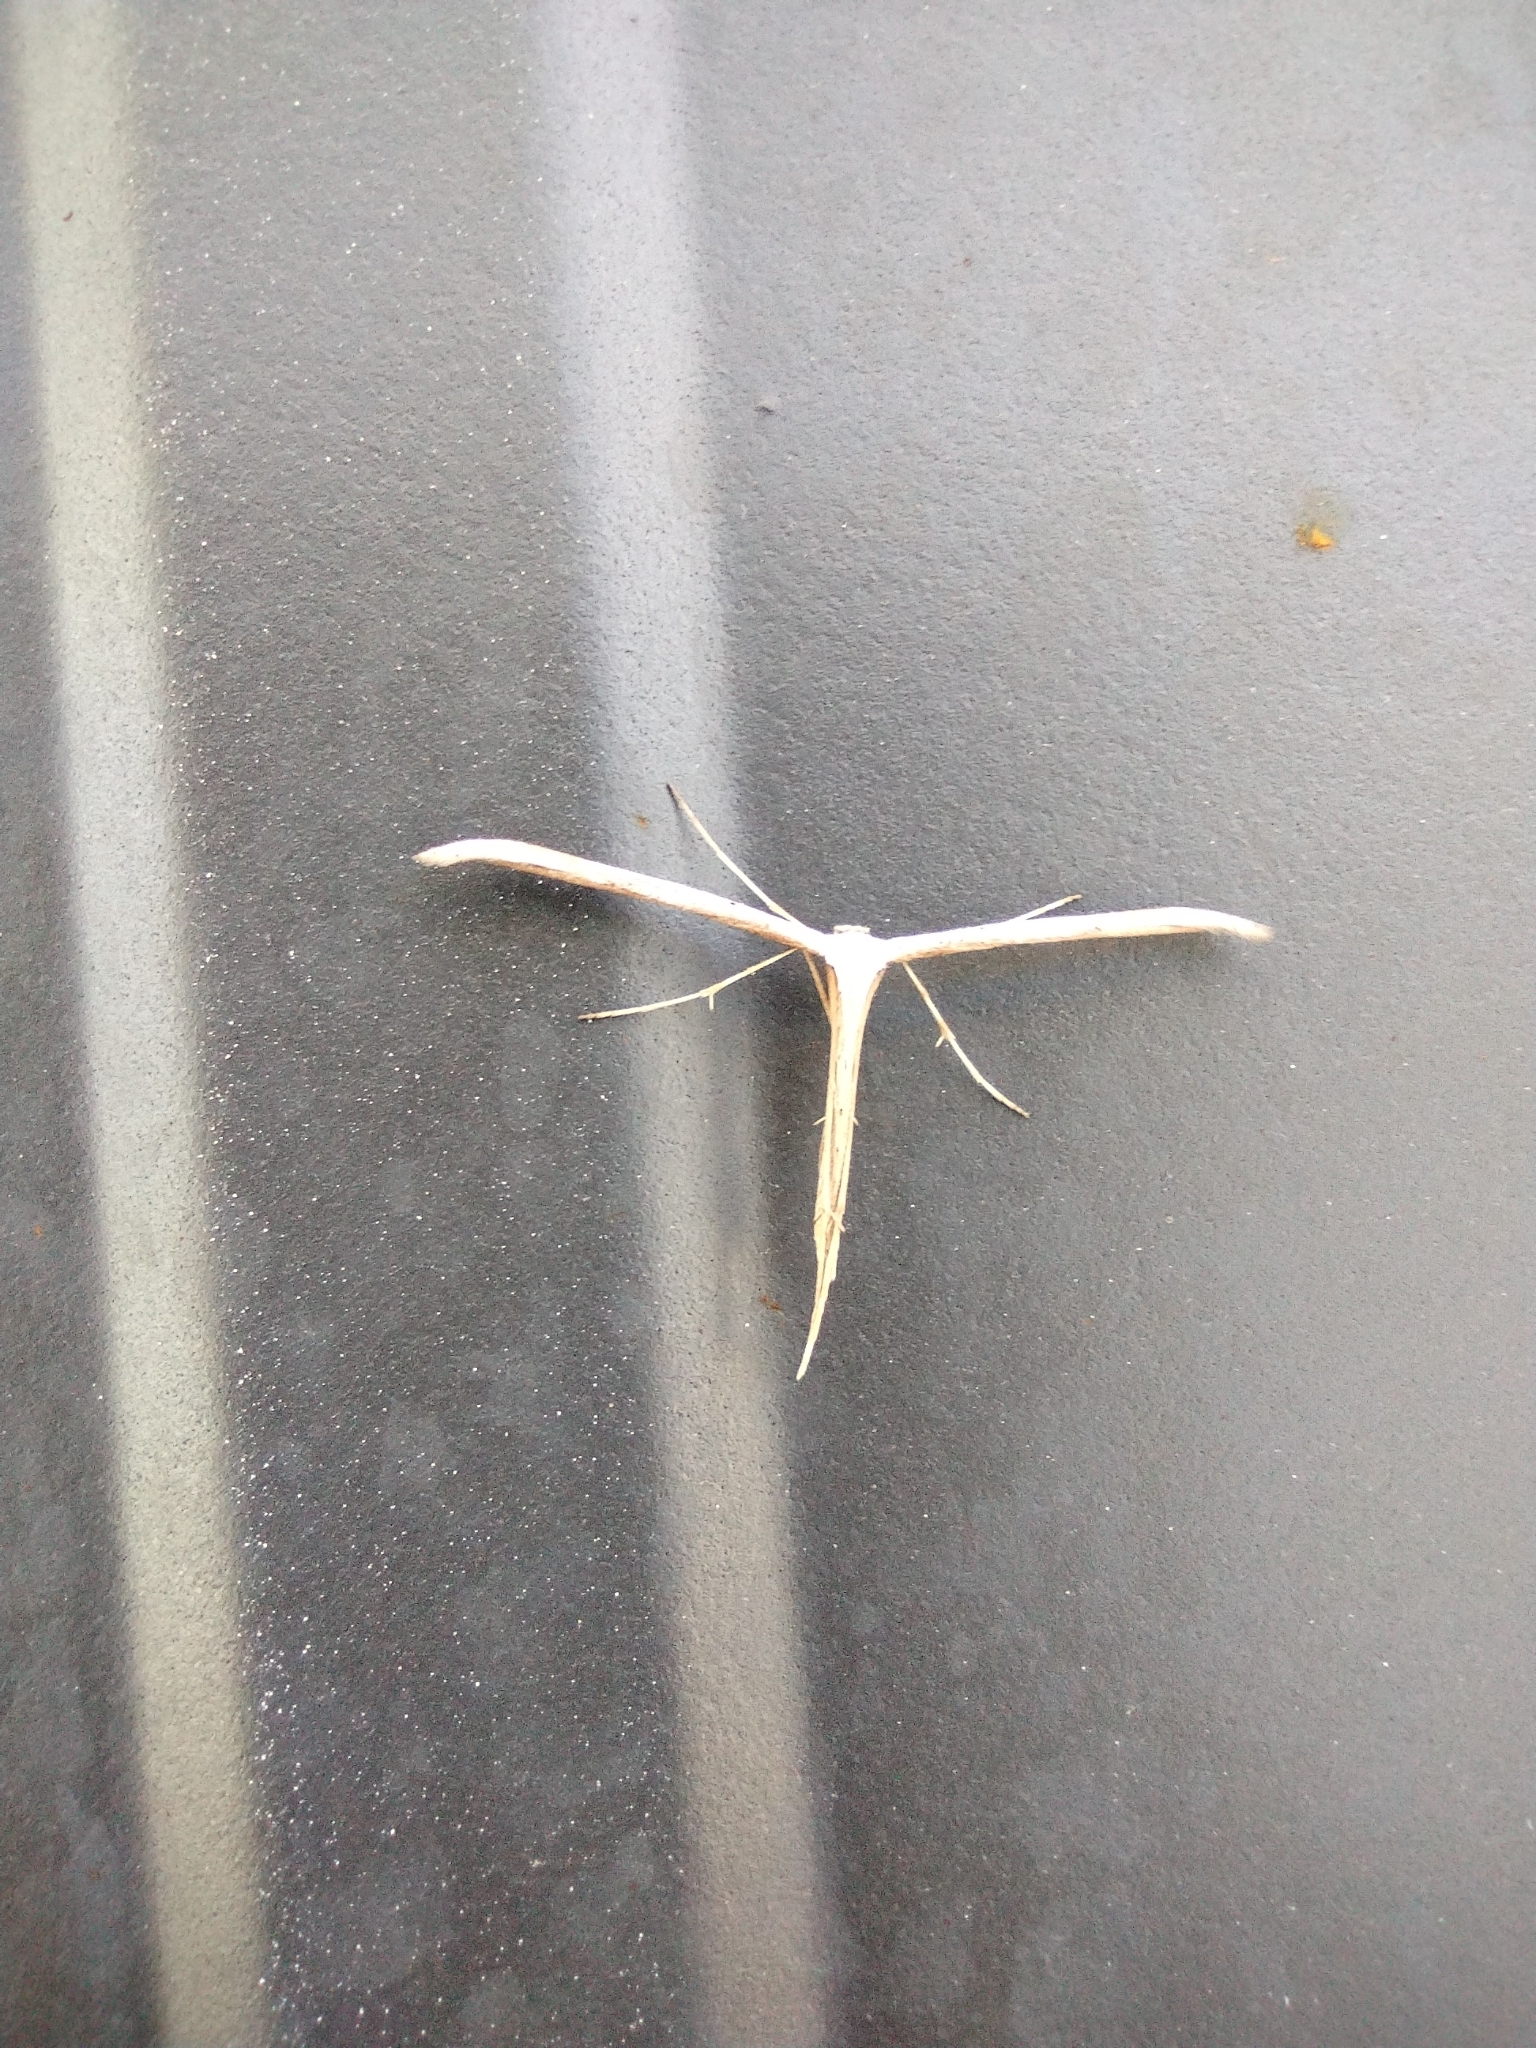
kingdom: Animalia
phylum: Arthropoda
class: Insecta
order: Lepidoptera
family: Pterophoridae
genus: Emmelina
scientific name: Emmelina monodactyla
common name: Common plume
